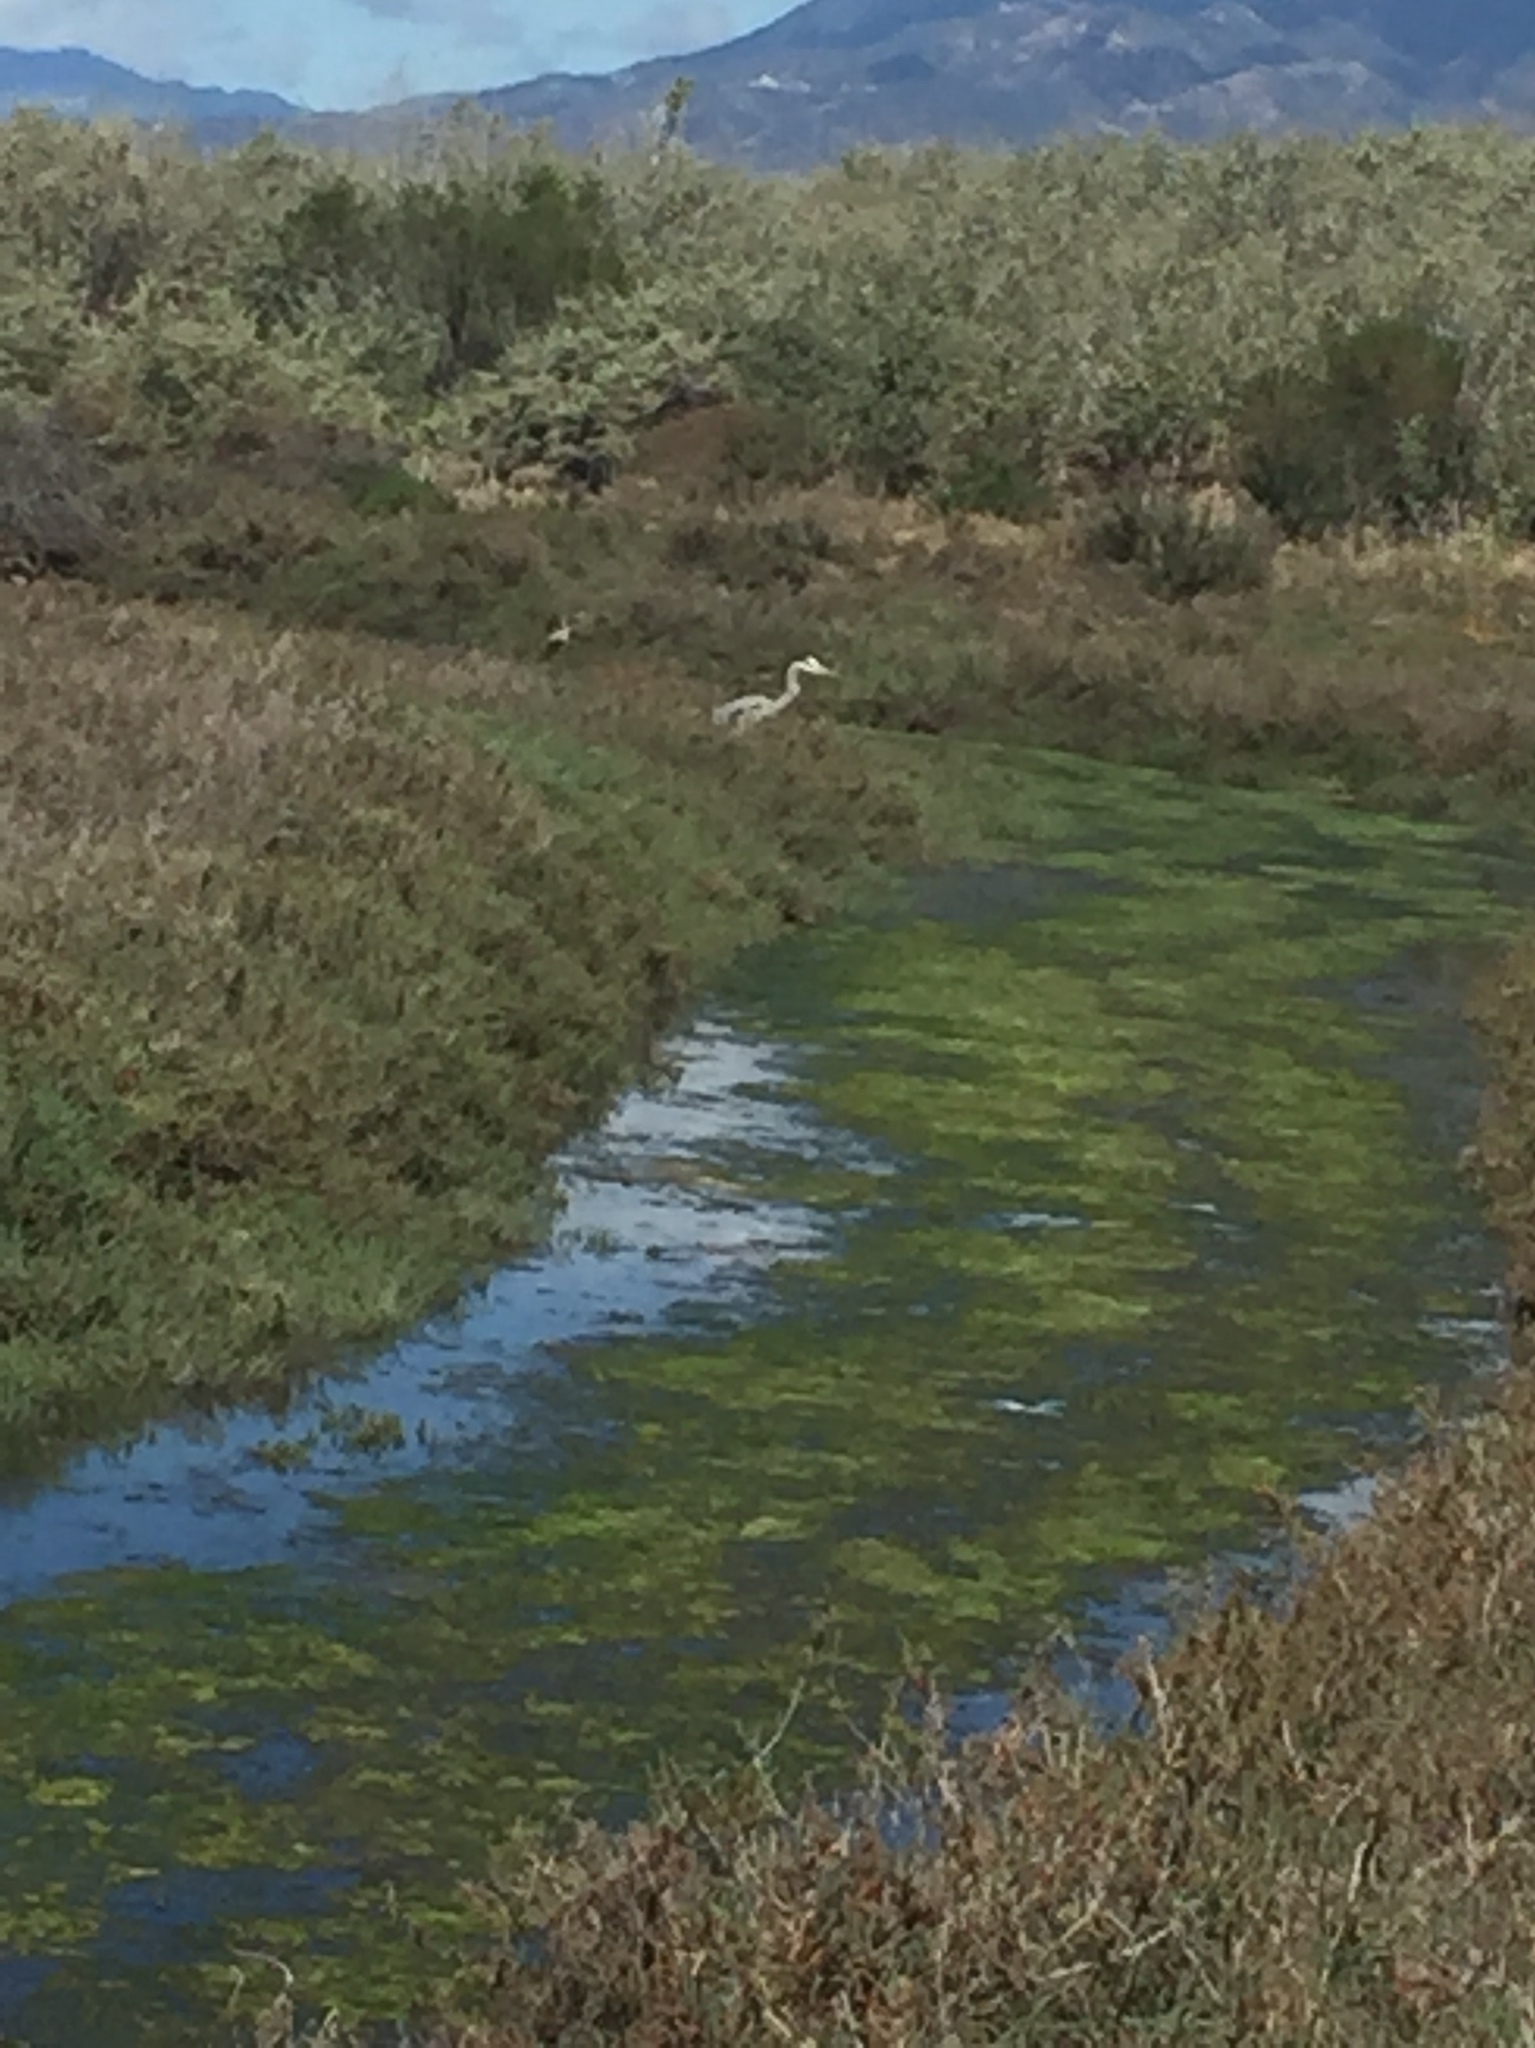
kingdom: Animalia
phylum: Chordata
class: Aves
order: Pelecaniformes
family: Ardeidae
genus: Ardea
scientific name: Ardea herodias
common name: Great blue heron
